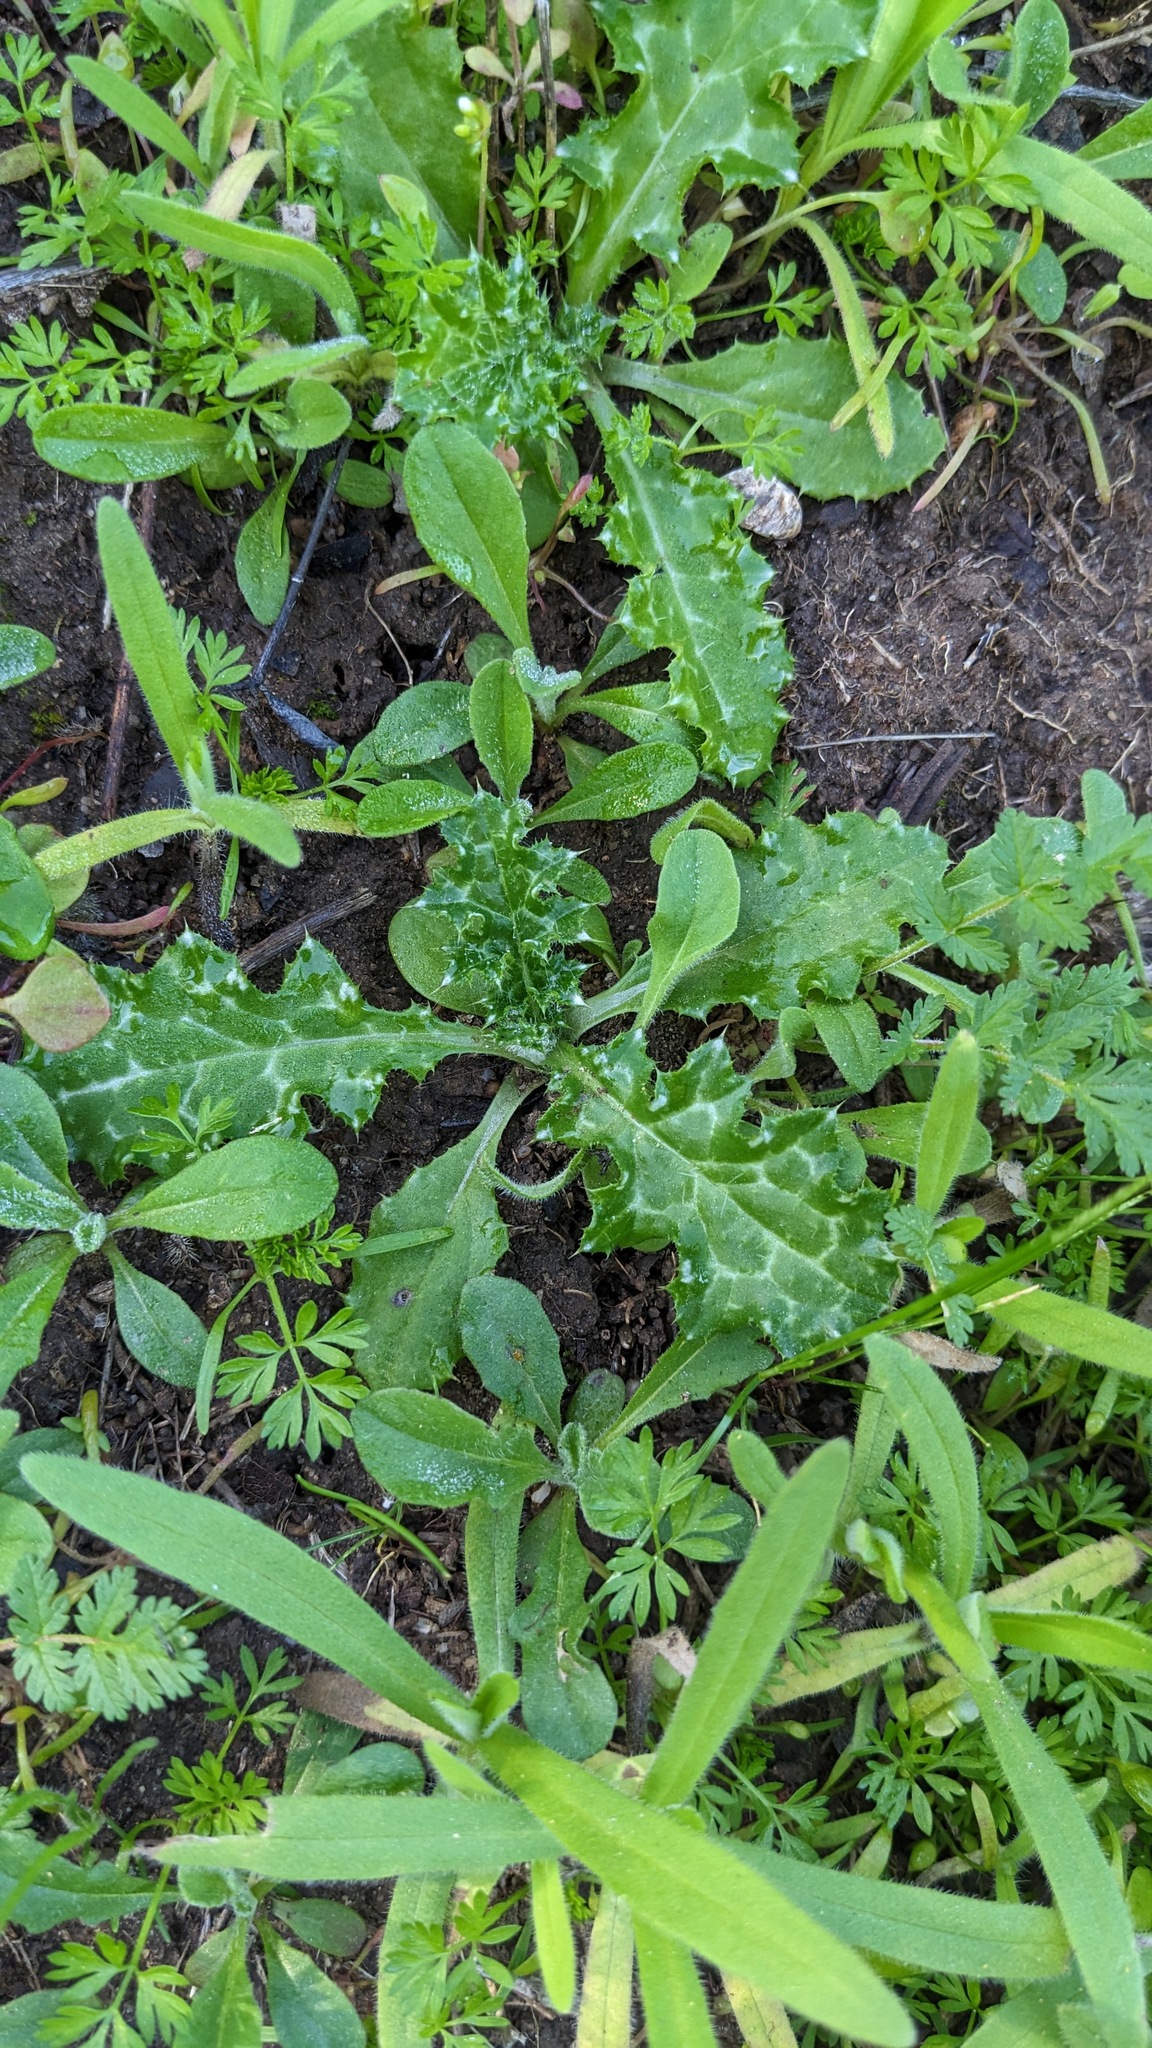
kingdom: Plantae
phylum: Tracheophyta
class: Magnoliopsida
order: Asterales
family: Asteraceae
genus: Carduus
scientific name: Carduus pycnocephalus
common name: Plymouth thistle
